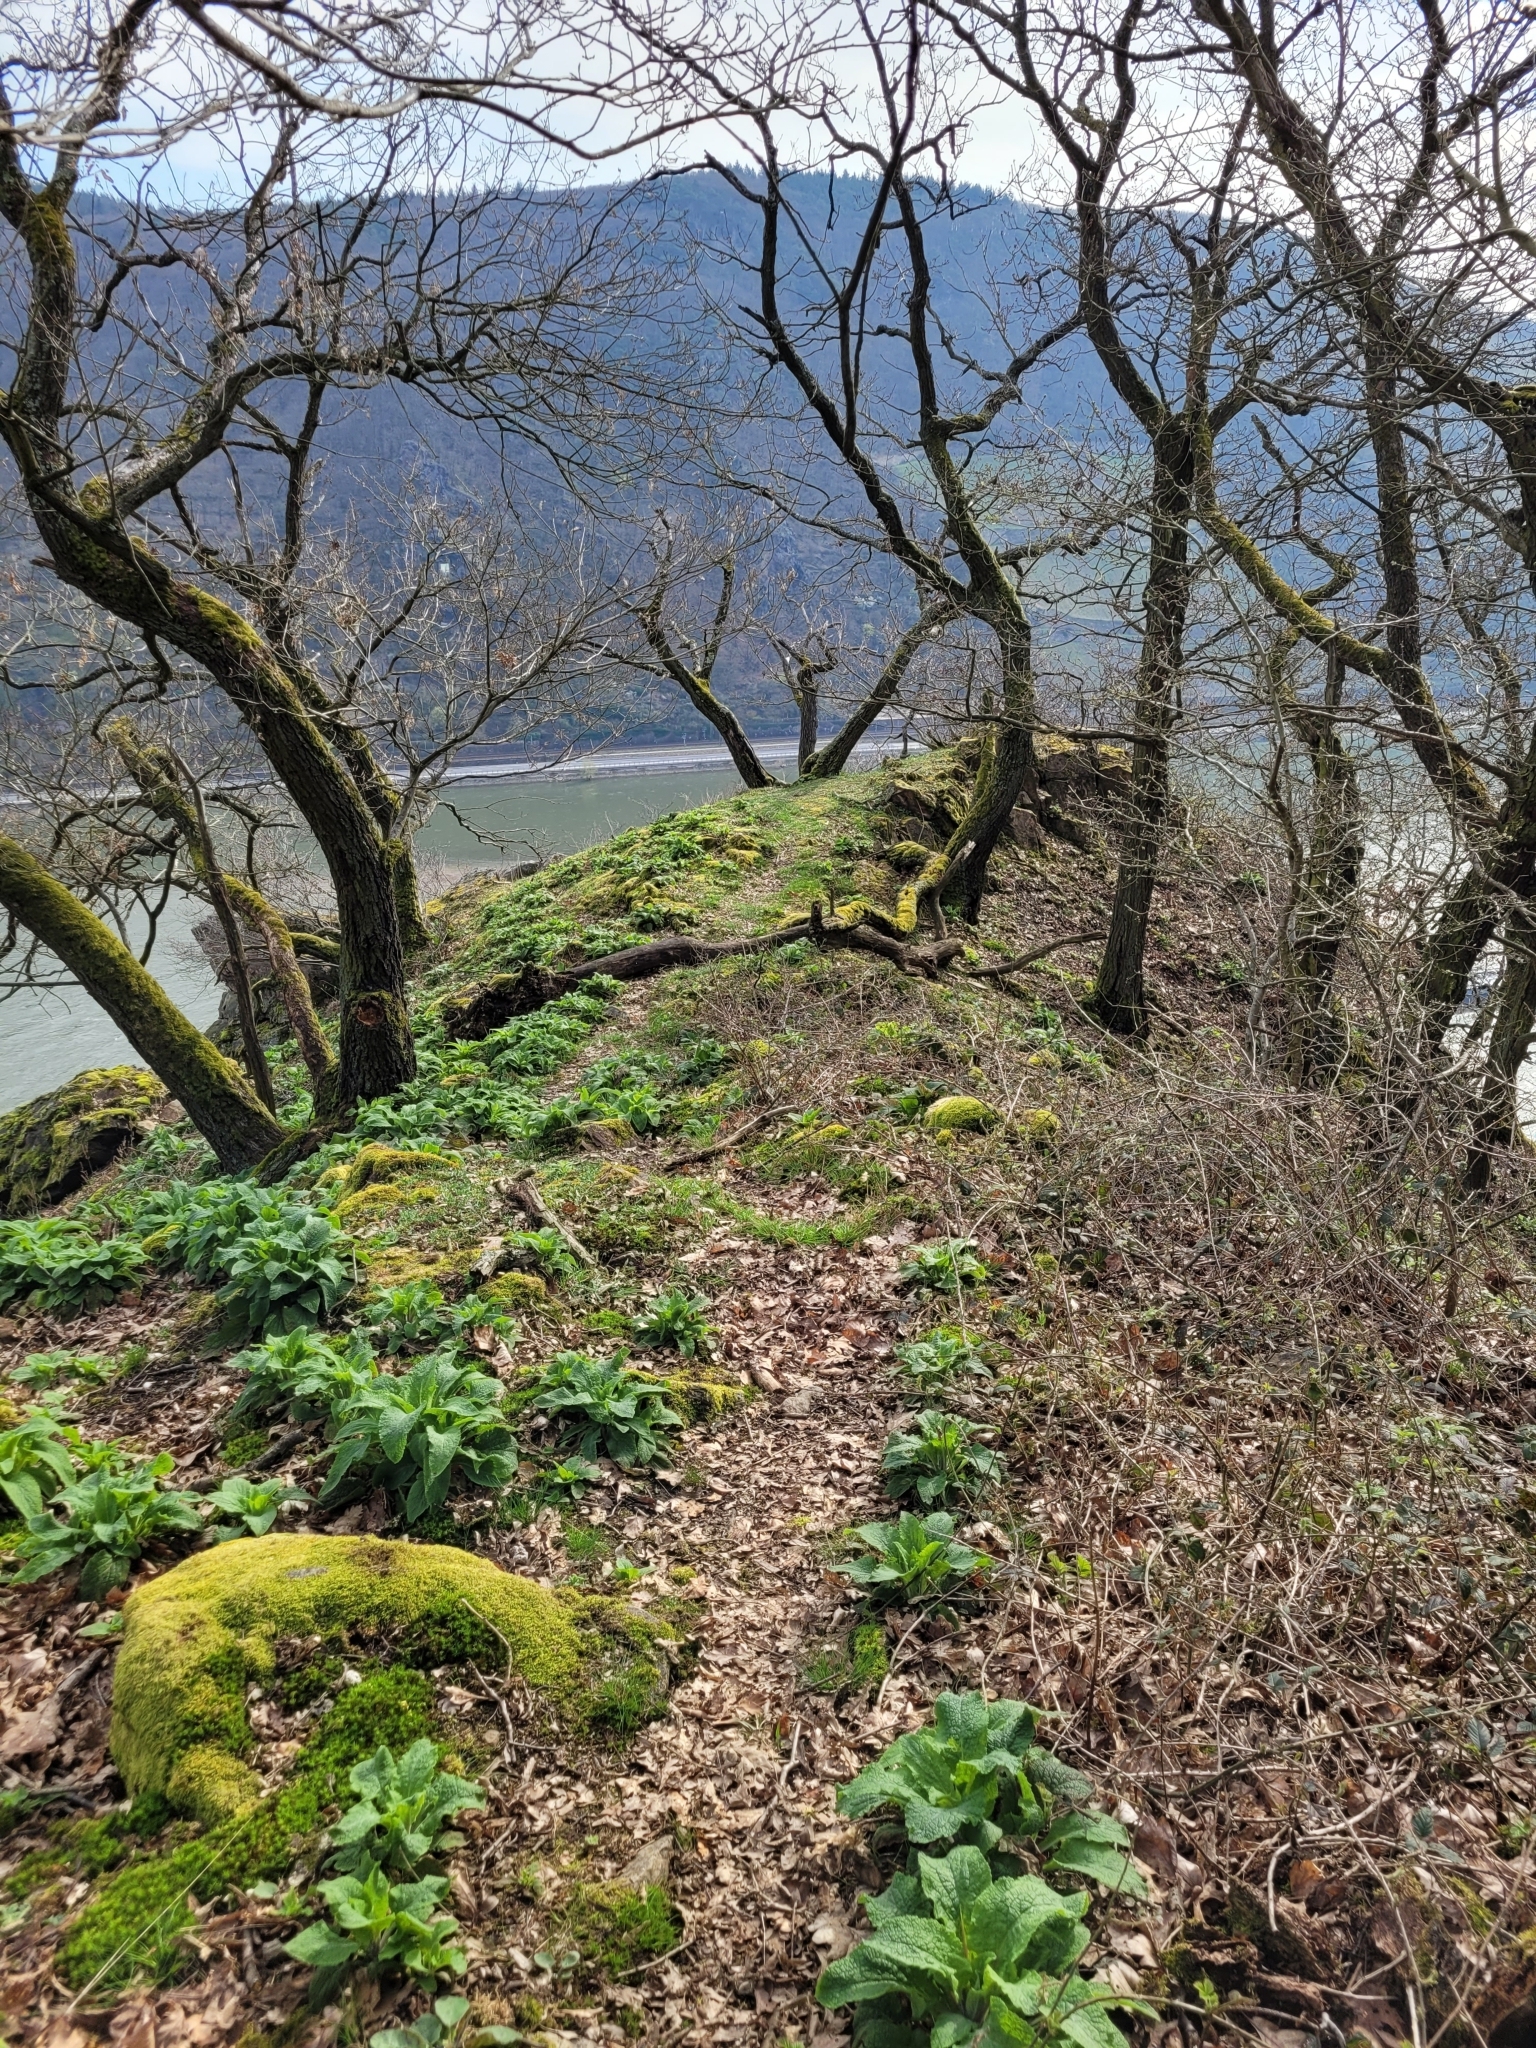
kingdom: Plantae
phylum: Tracheophyta
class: Magnoliopsida
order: Lamiales
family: Plantaginaceae
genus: Digitalis
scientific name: Digitalis purpurea
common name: Foxglove
